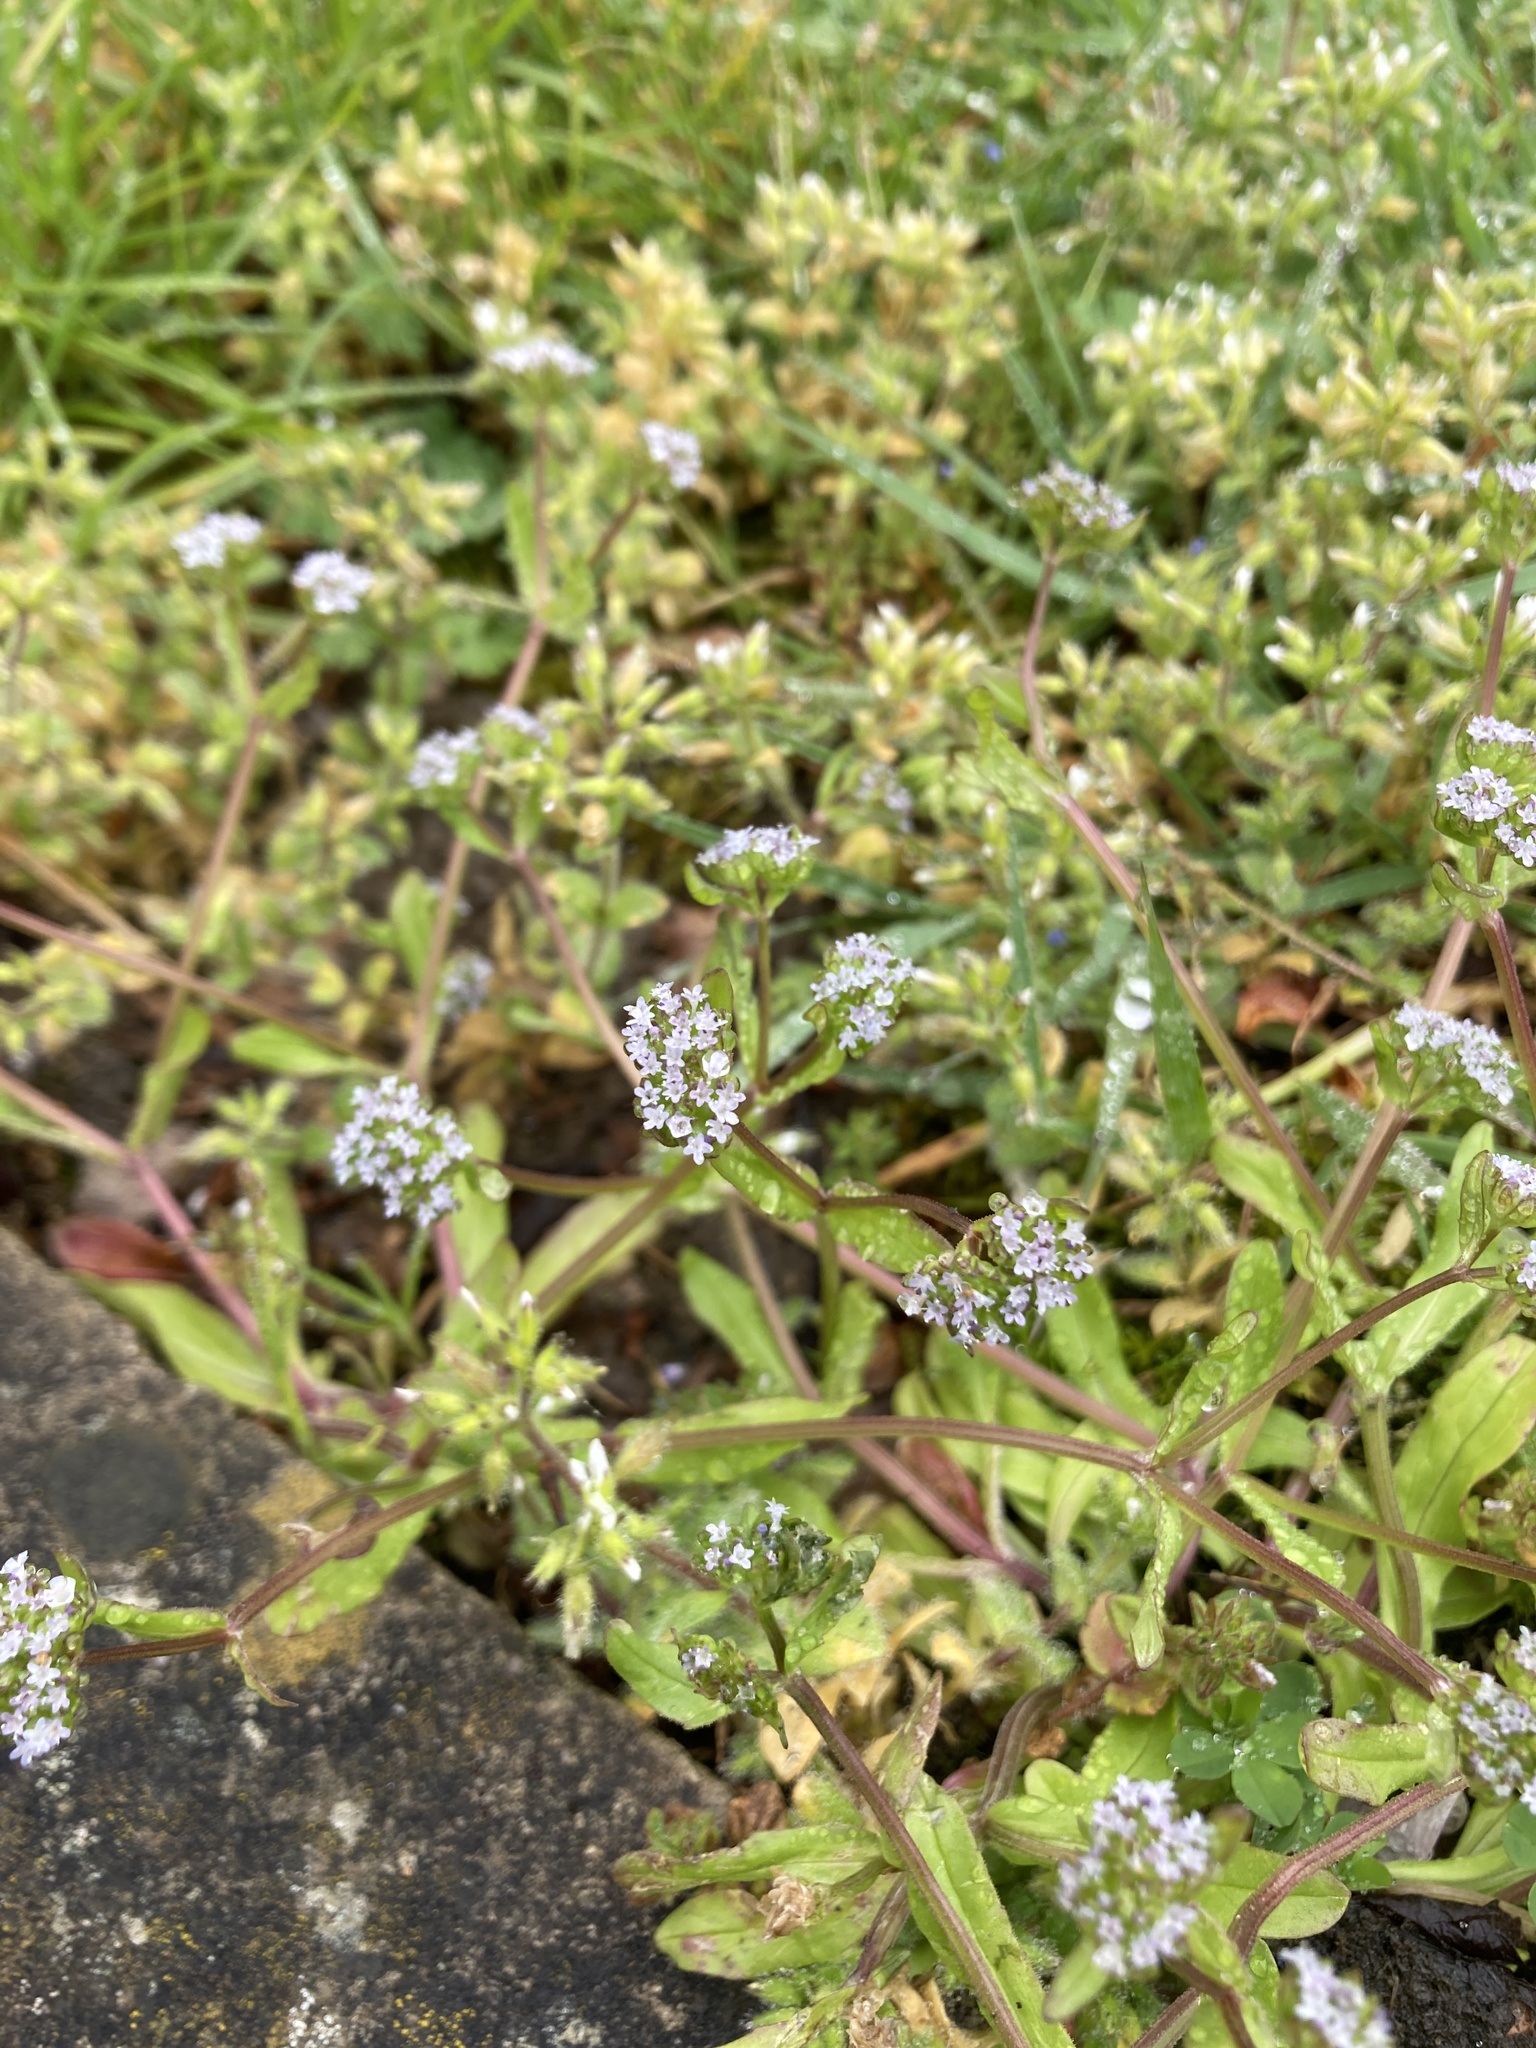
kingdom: Plantae
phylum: Tracheophyta
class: Magnoliopsida
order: Dipsacales
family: Caprifoliaceae
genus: Valerianella
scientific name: Valerianella locusta
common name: Common cornsalad
